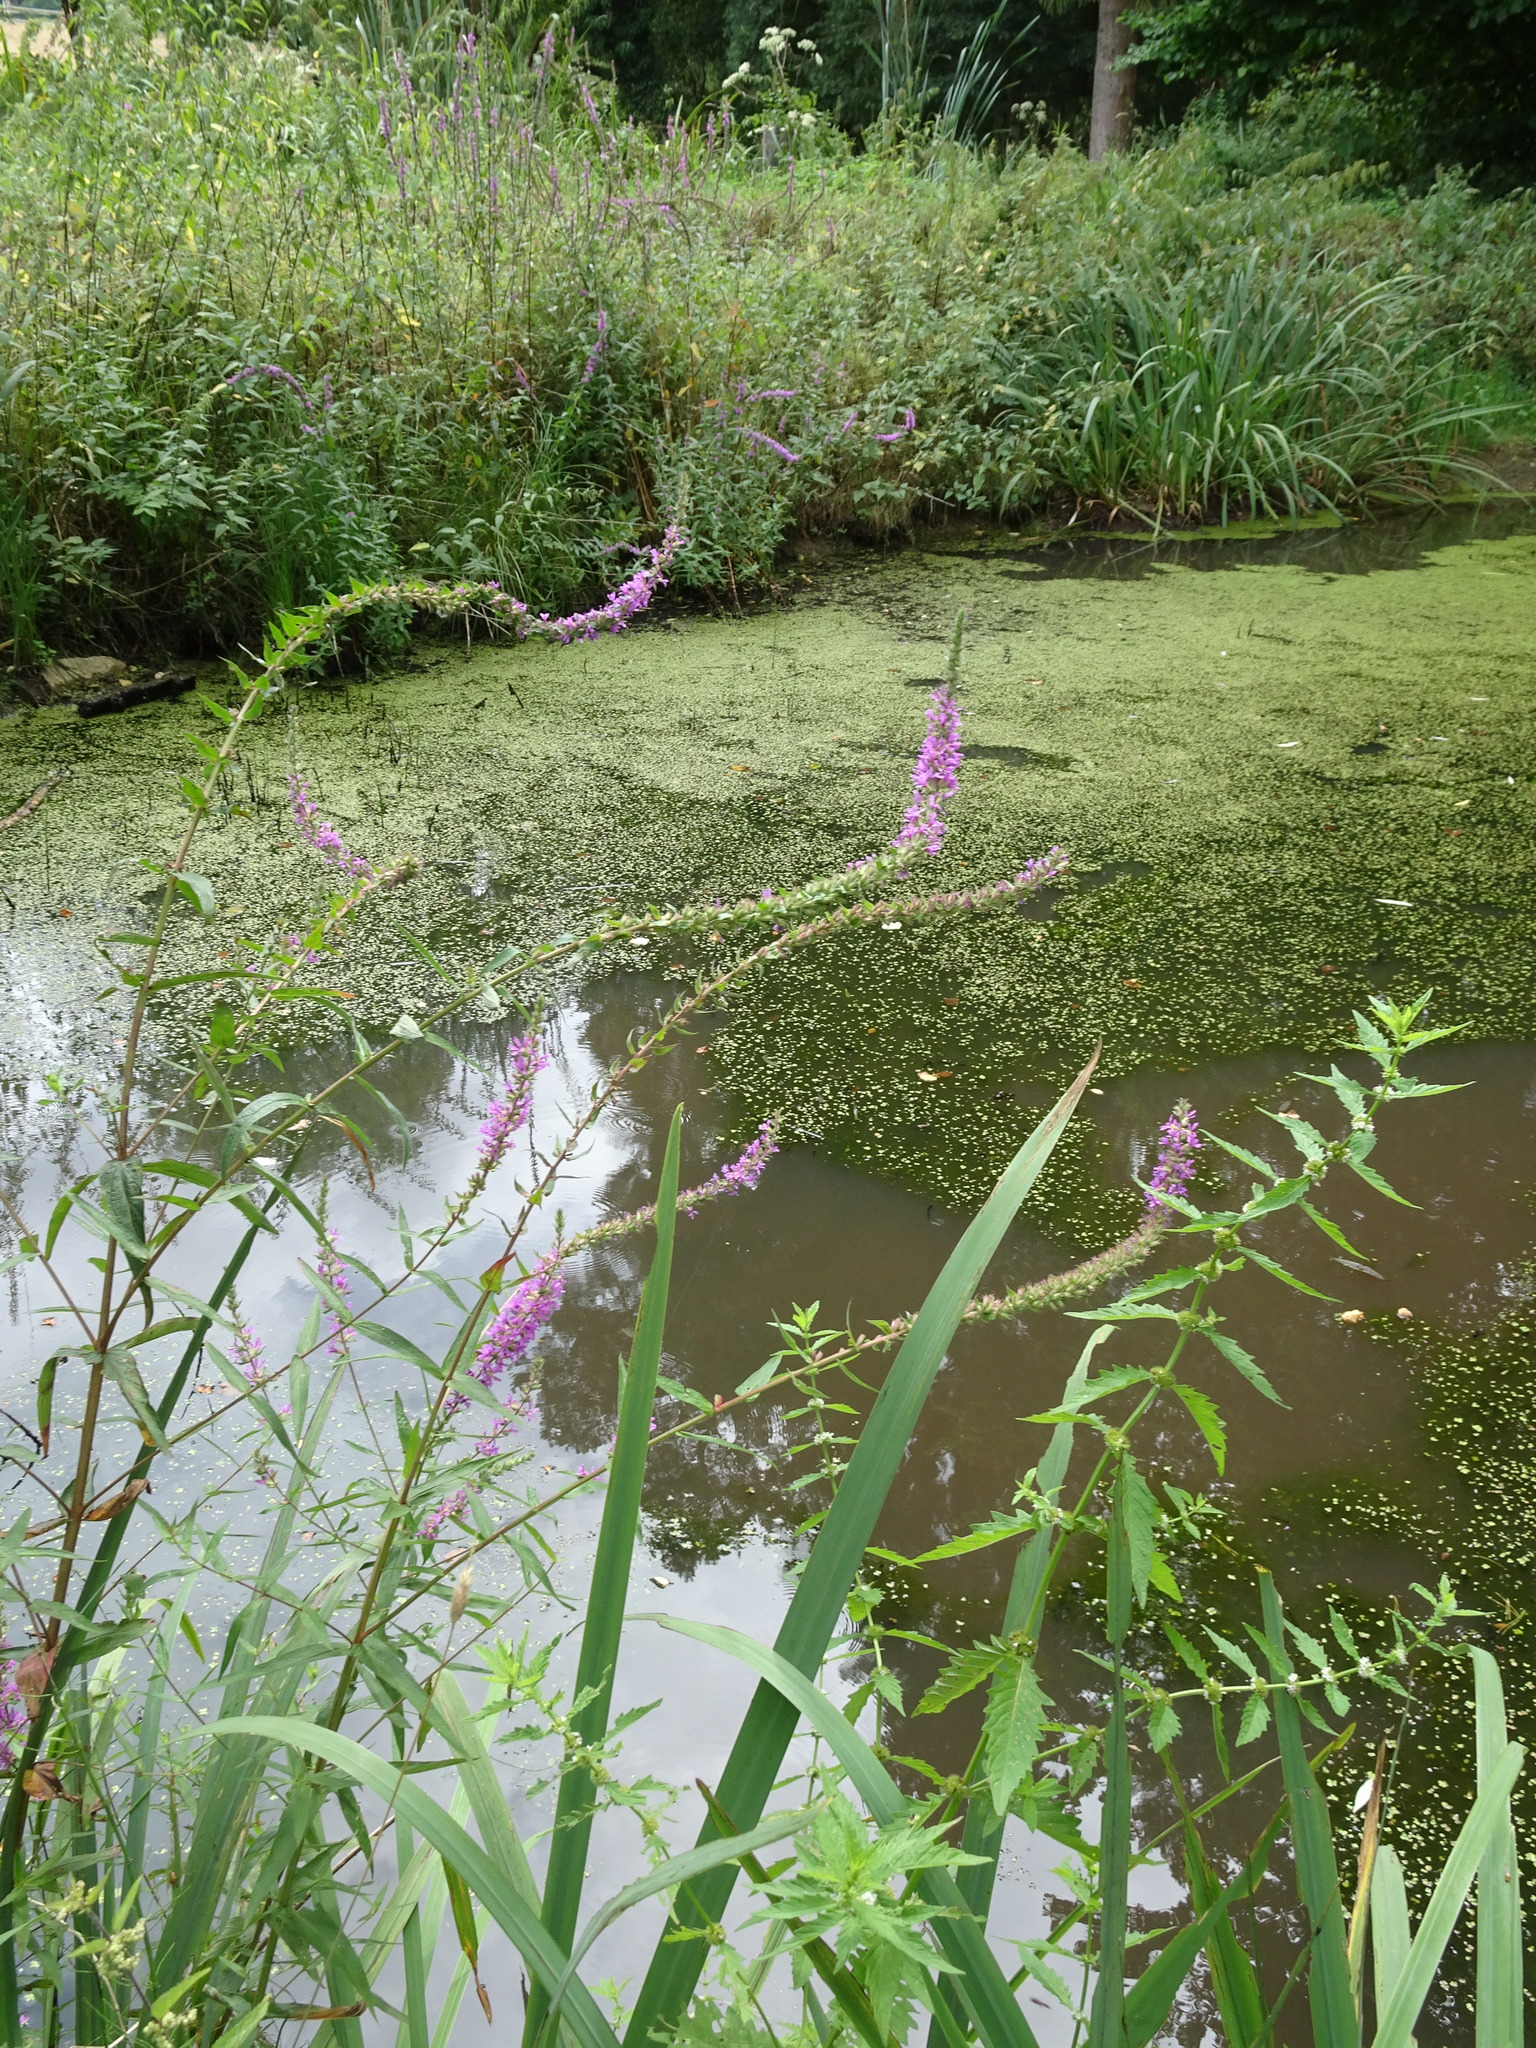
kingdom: Plantae
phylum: Tracheophyta
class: Magnoliopsida
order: Myrtales
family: Lythraceae
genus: Lythrum
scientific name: Lythrum salicaria
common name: Purple loosestrife
